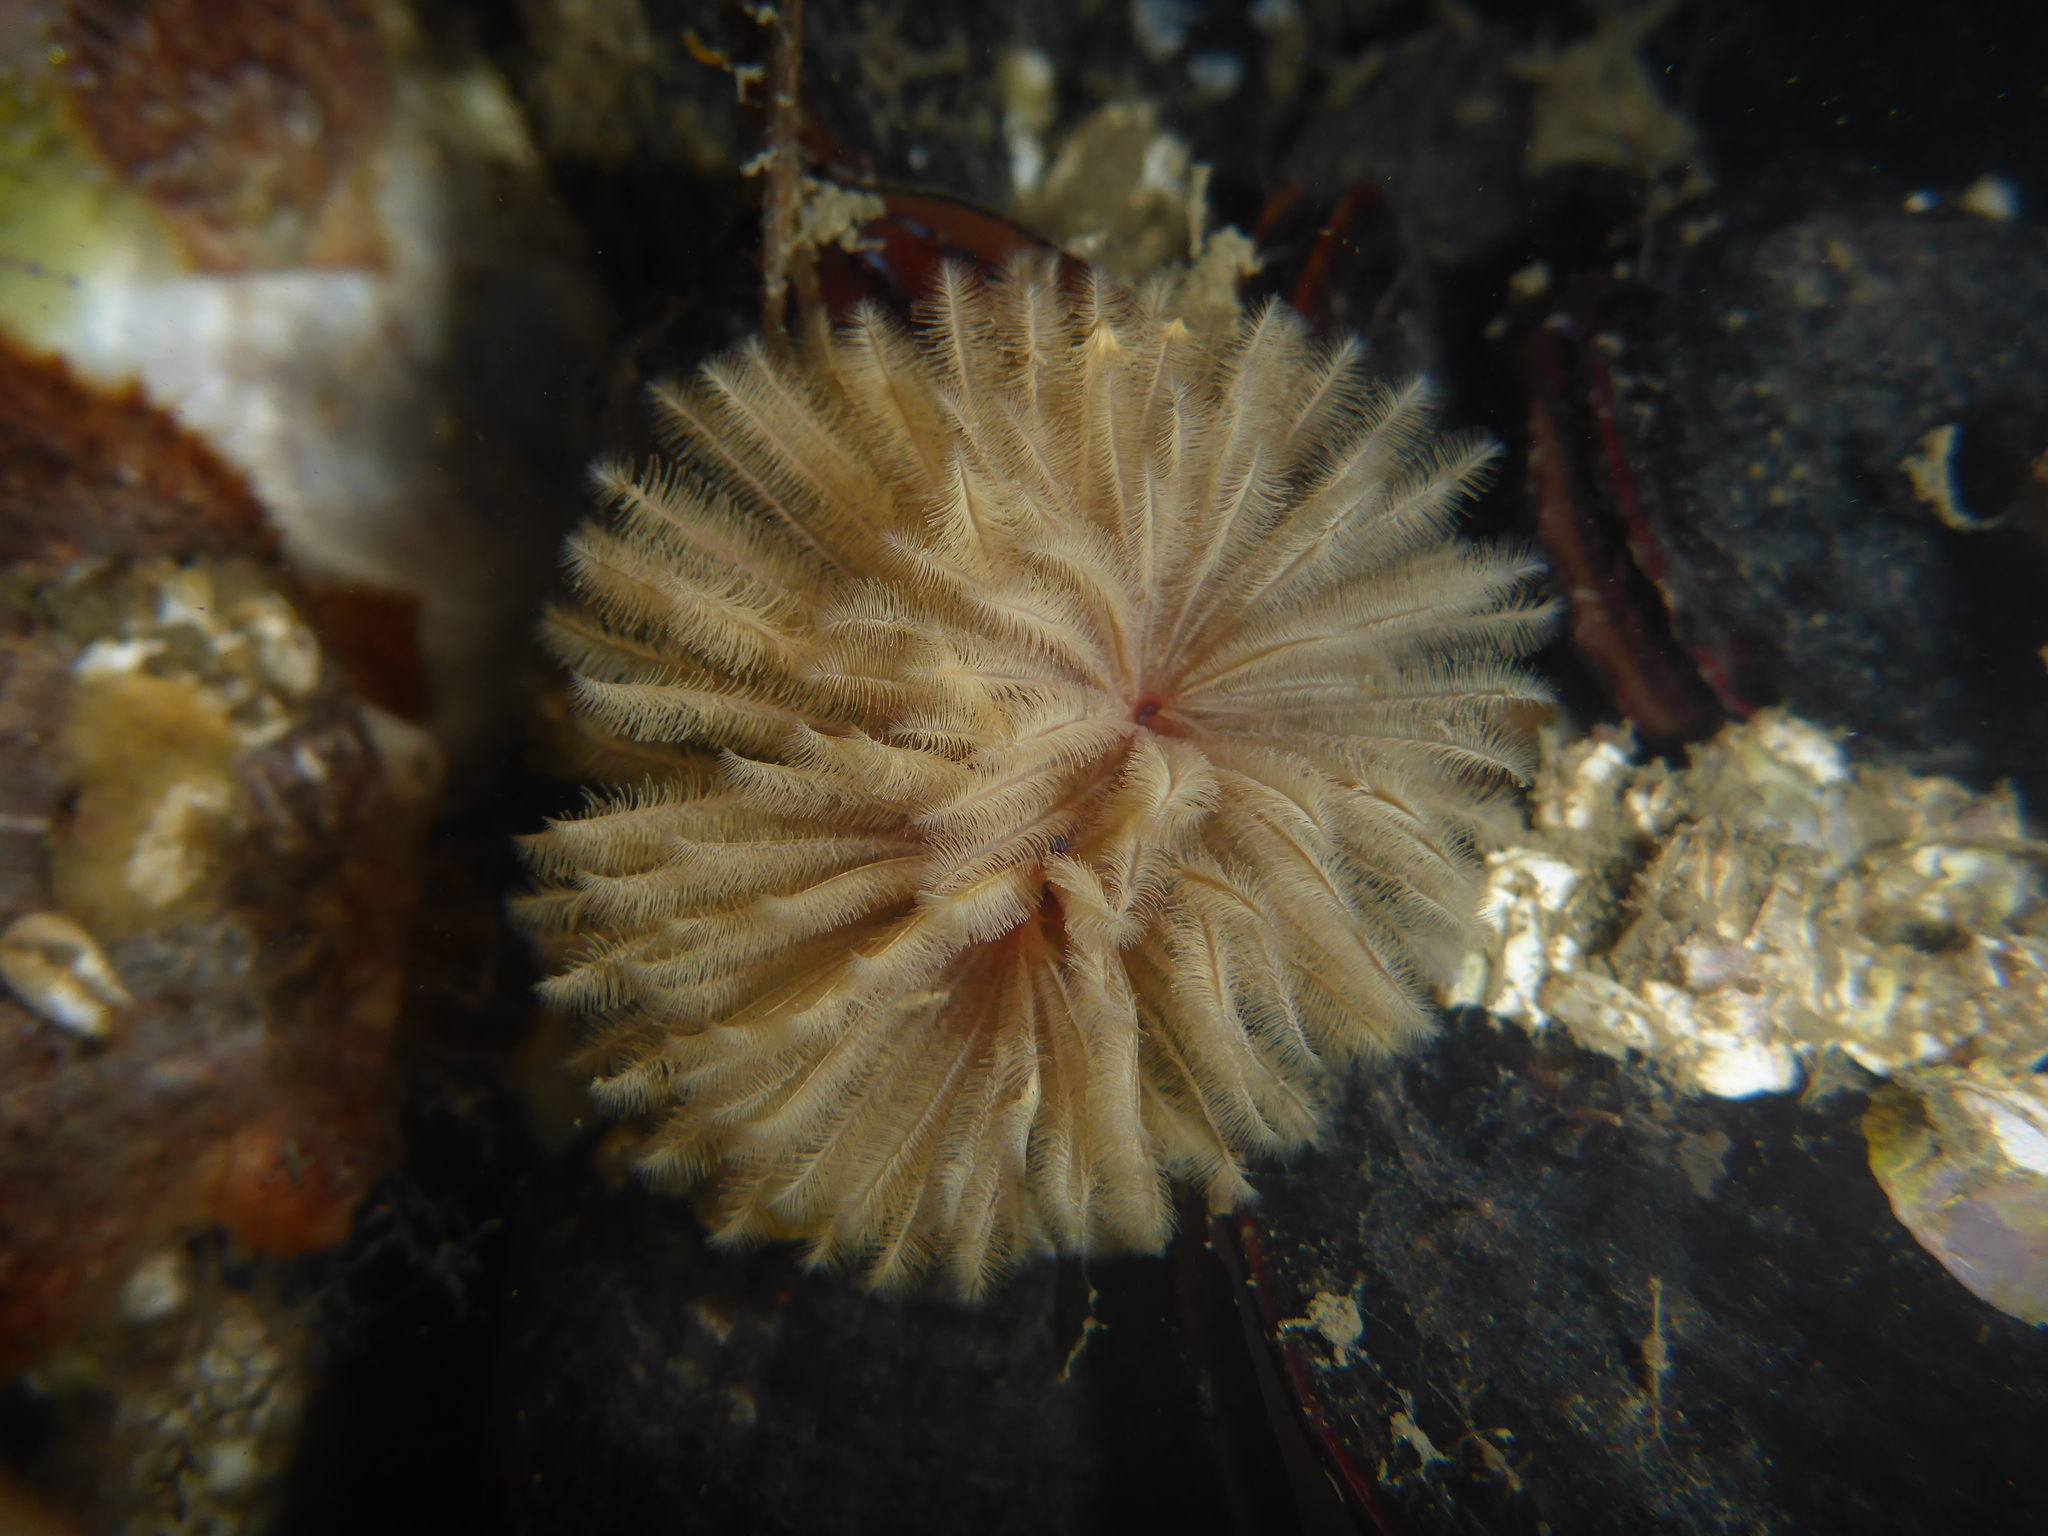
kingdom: Animalia
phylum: Annelida
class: Polychaeta
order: Sabellida
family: Sabellidae
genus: Eudistylia
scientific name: Eudistylia polymorpha
